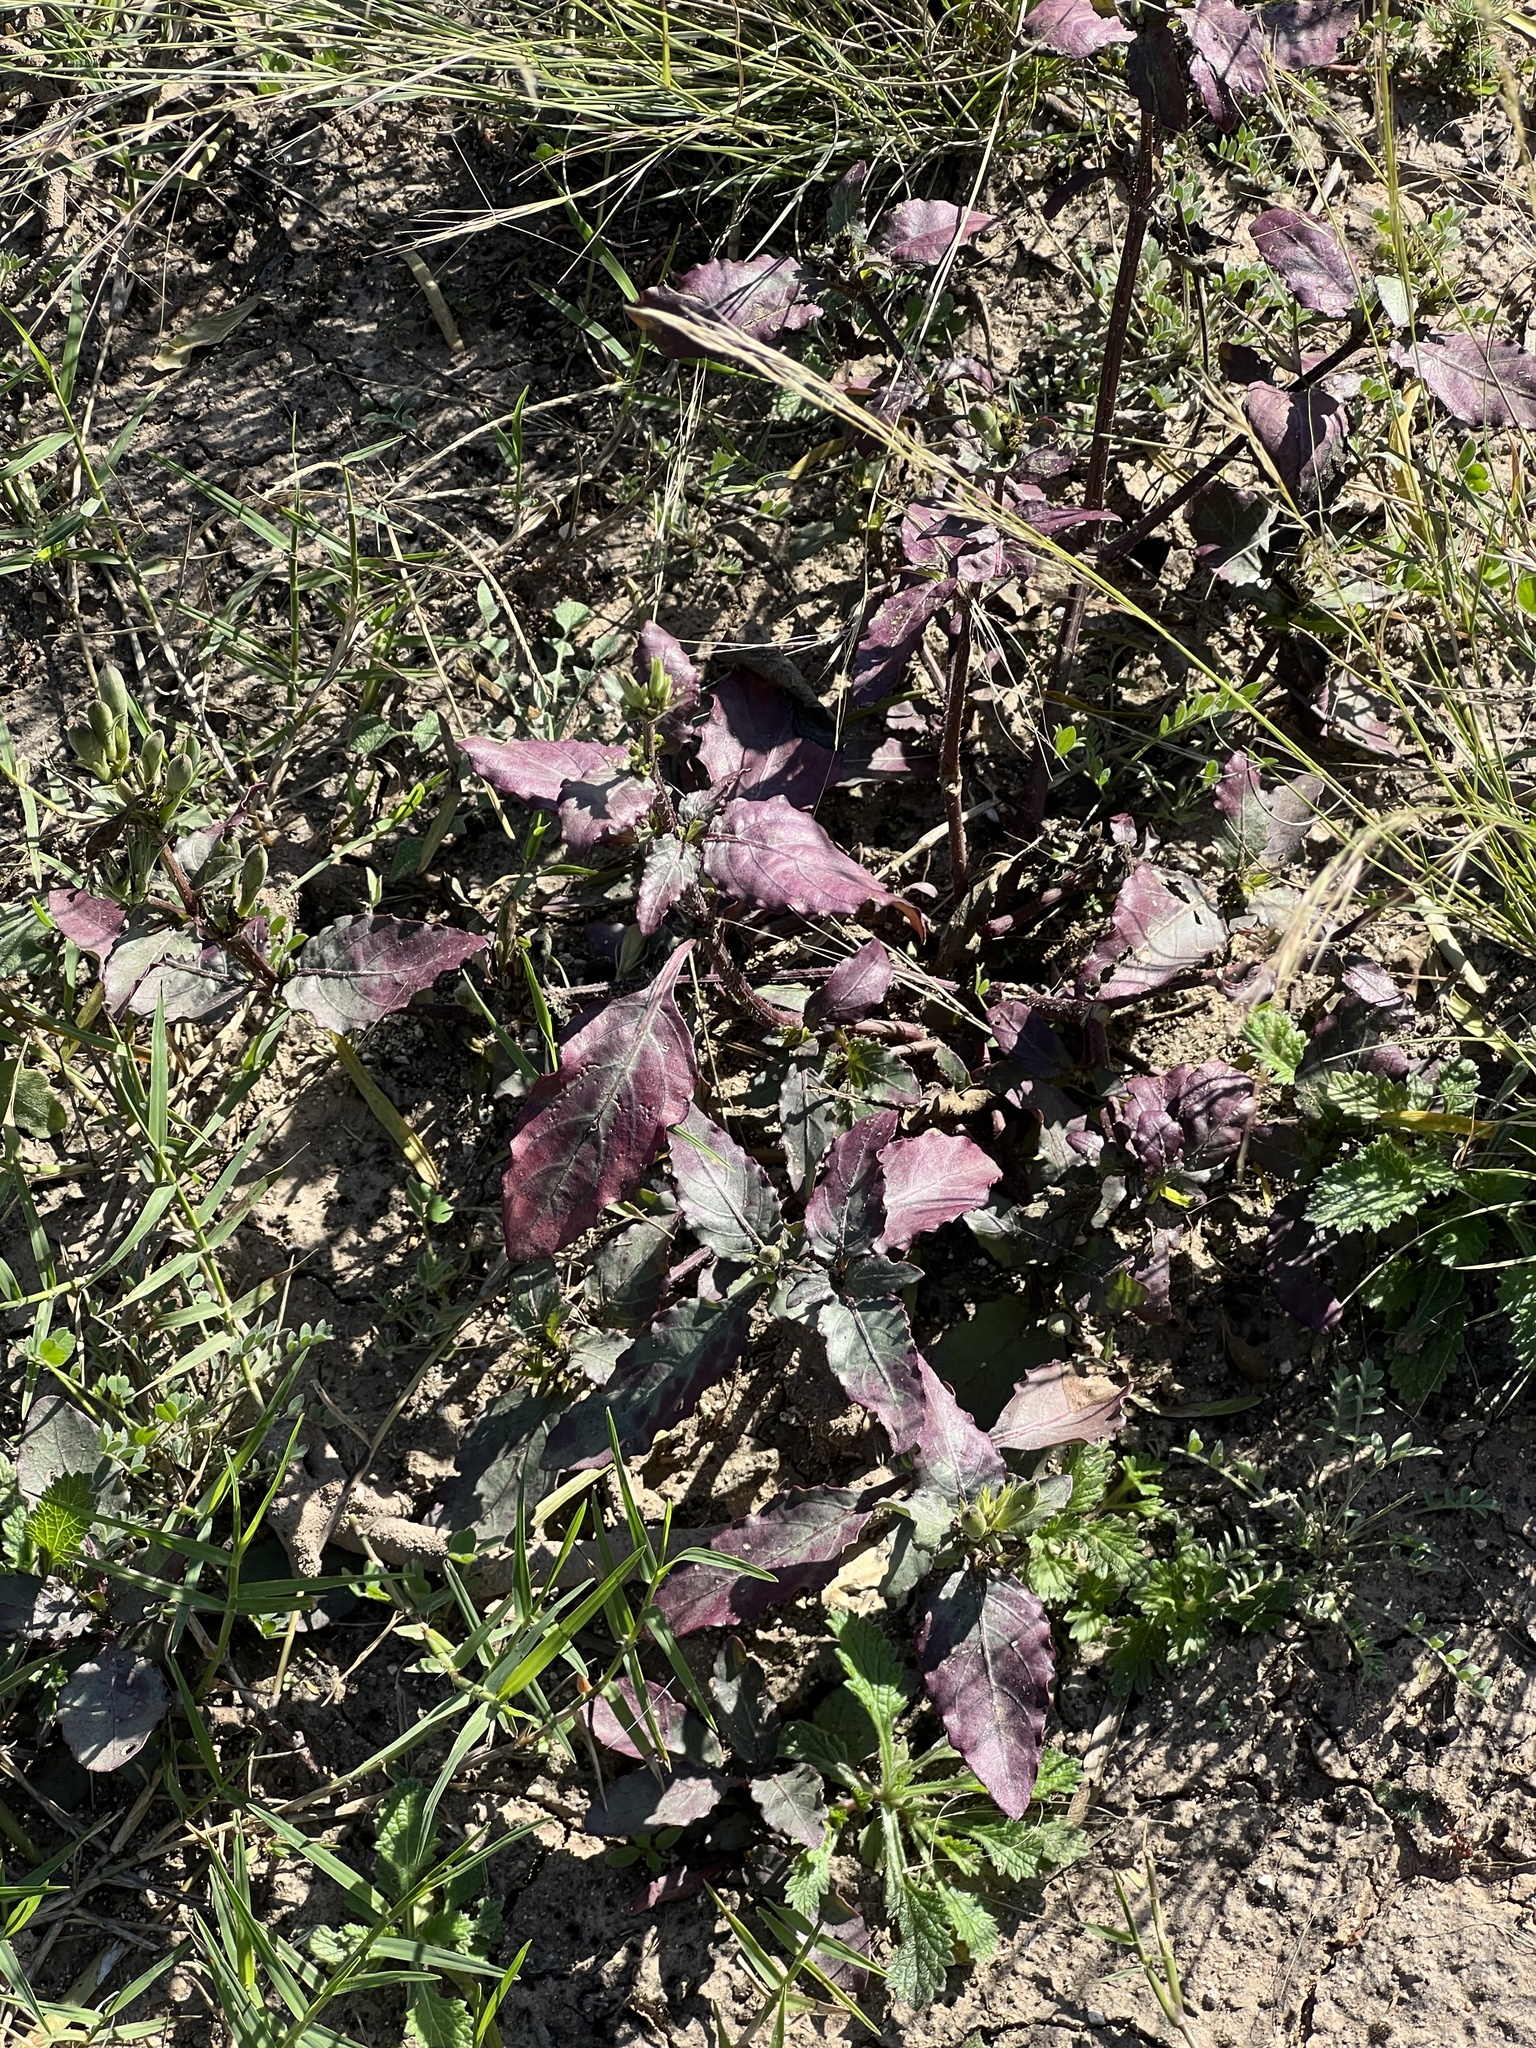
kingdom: Plantae
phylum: Tracheophyta
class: Magnoliopsida
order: Myrtales
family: Onagraceae
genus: Oenothera
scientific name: Oenothera speciosa
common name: White evening-primrose
